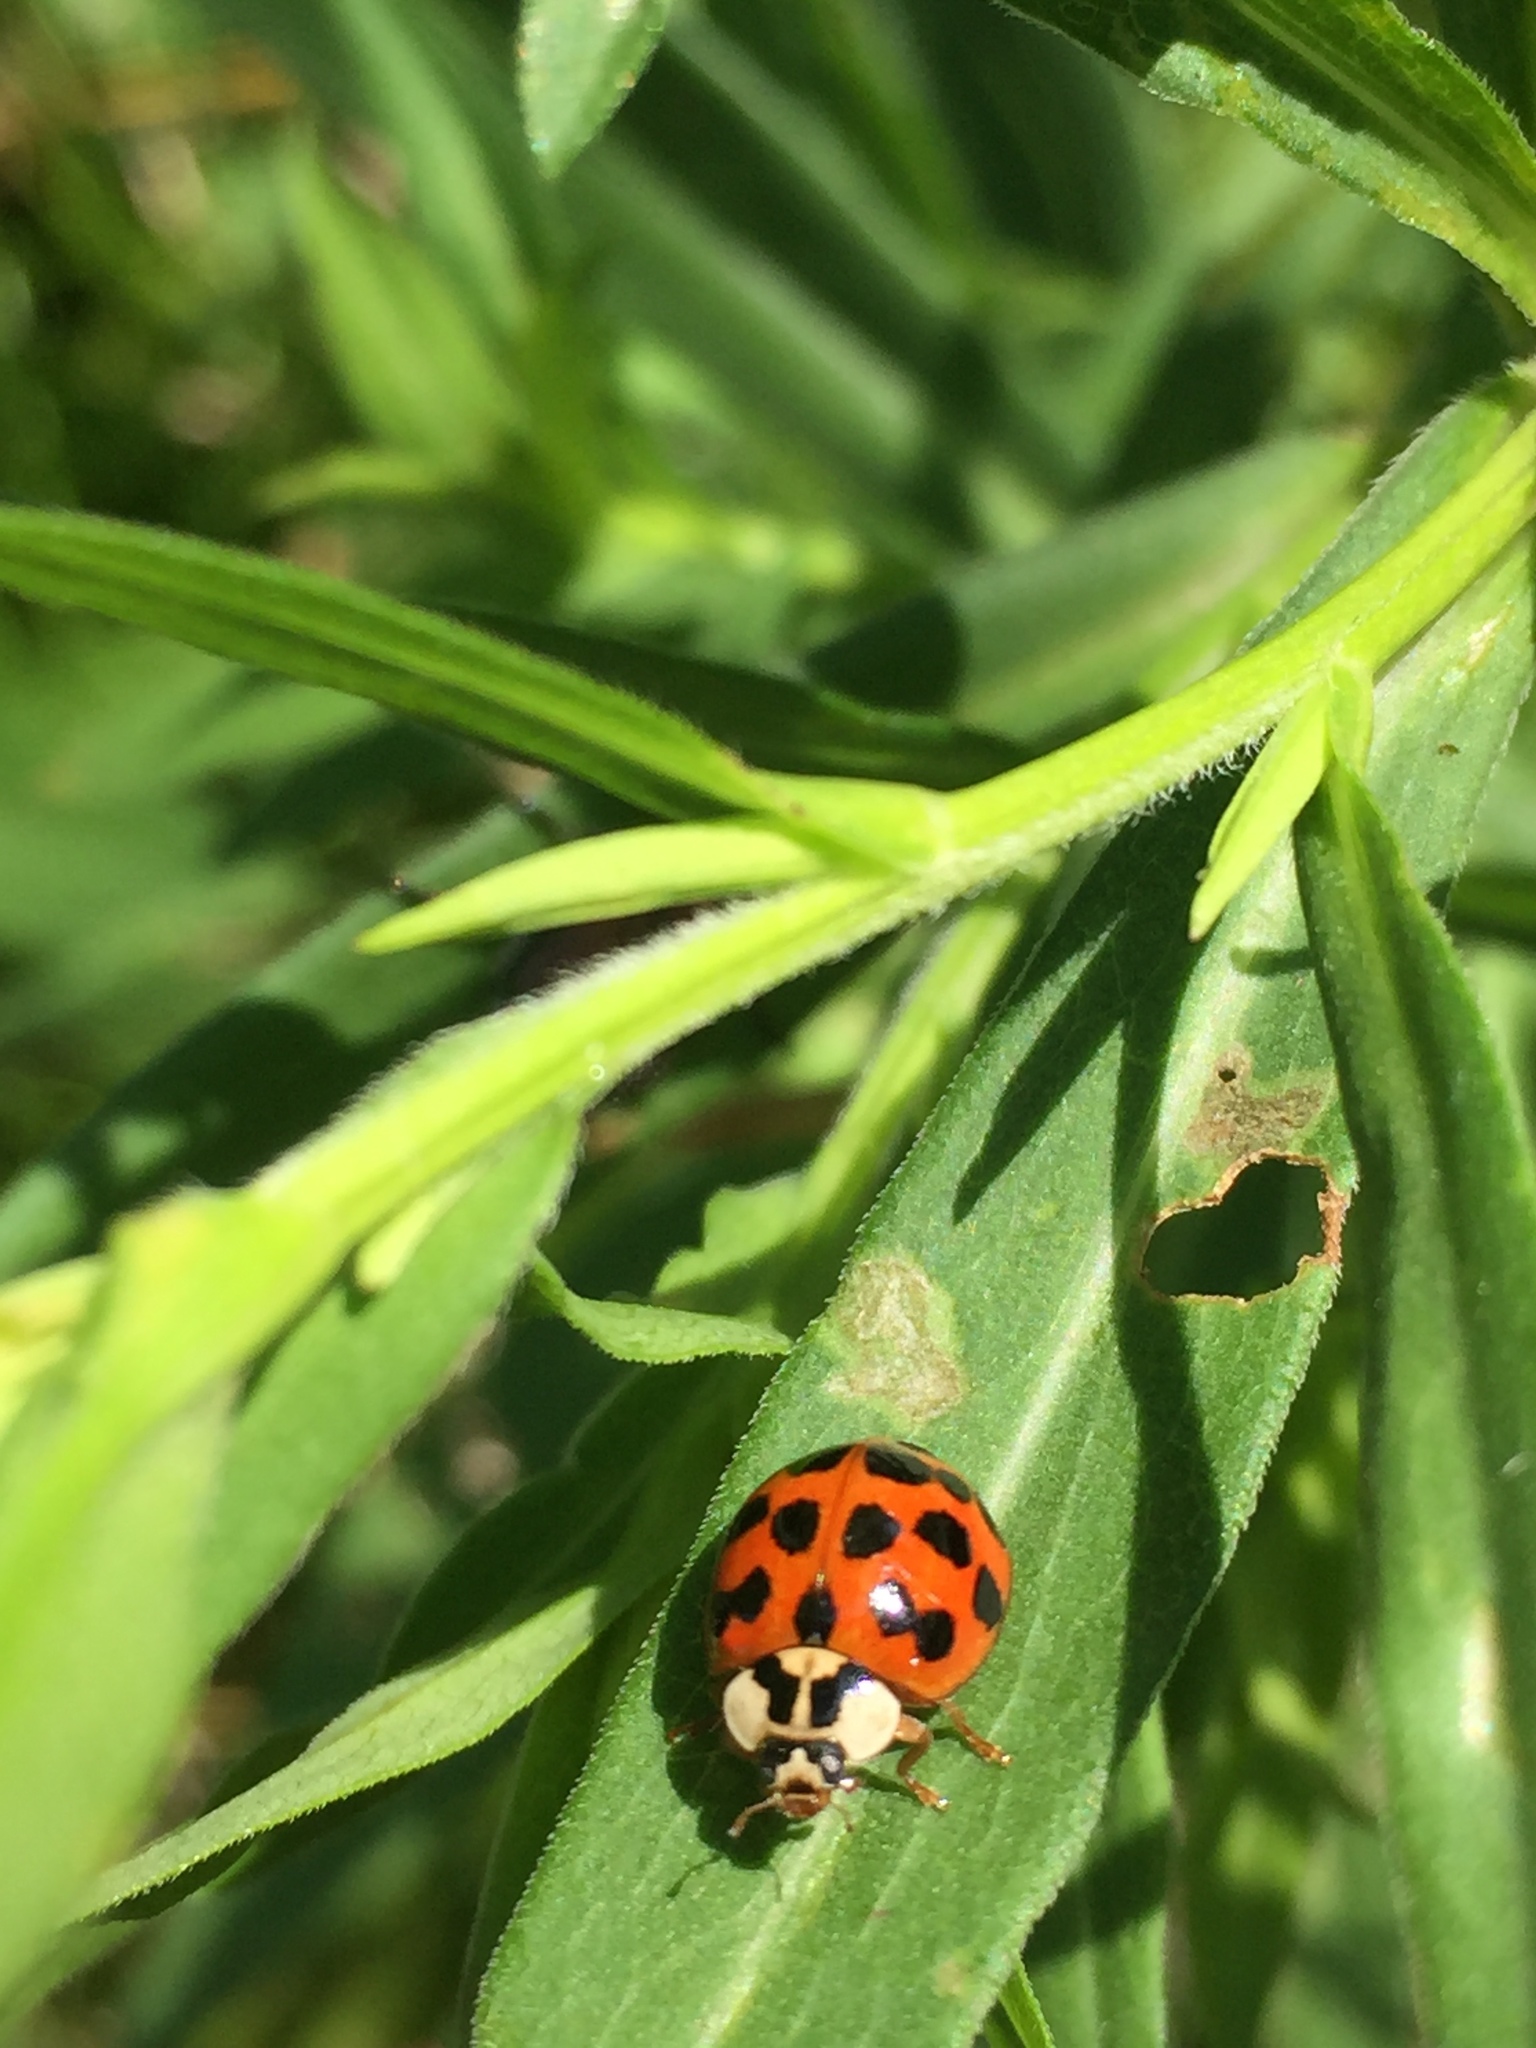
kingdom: Animalia
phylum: Arthropoda
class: Insecta
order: Coleoptera
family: Coccinellidae
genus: Harmonia
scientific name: Harmonia axyridis
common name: Harlequin ladybird
